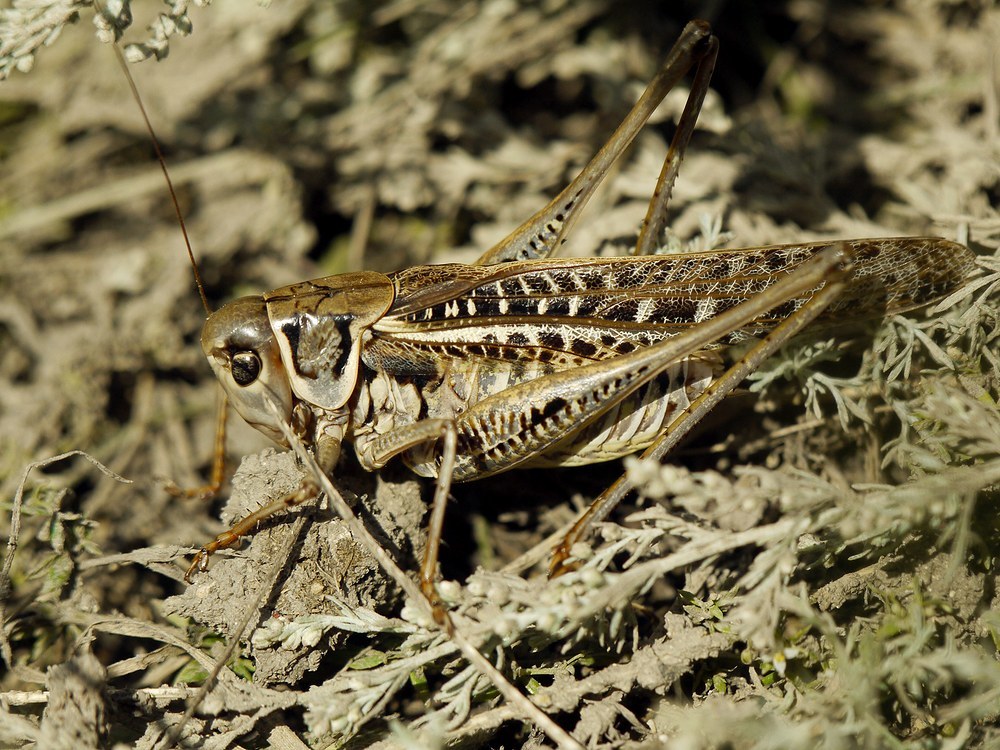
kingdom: Animalia
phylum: Arthropoda
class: Insecta
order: Orthoptera
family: Tettigoniidae
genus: Decticus
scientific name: Decticus albifrons
